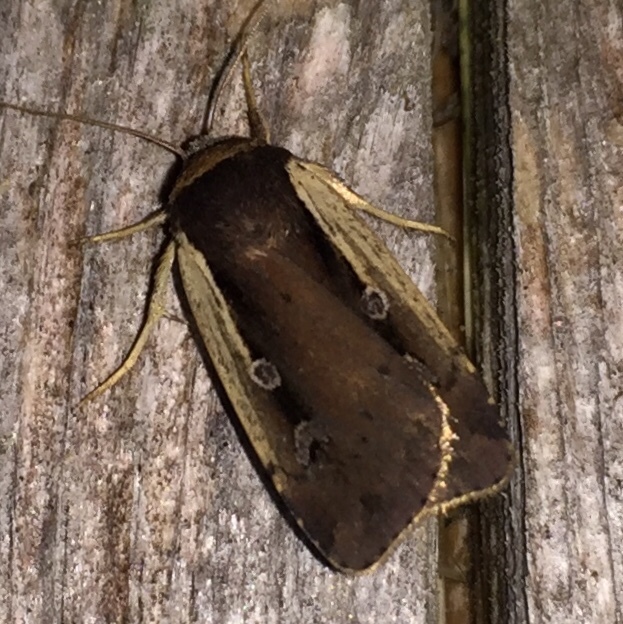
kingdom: Animalia
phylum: Arthropoda
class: Insecta
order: Lepidoptera
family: Noctuidae
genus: Ochropleura
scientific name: Ochropleura implecta
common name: Flame-shouldered dart
